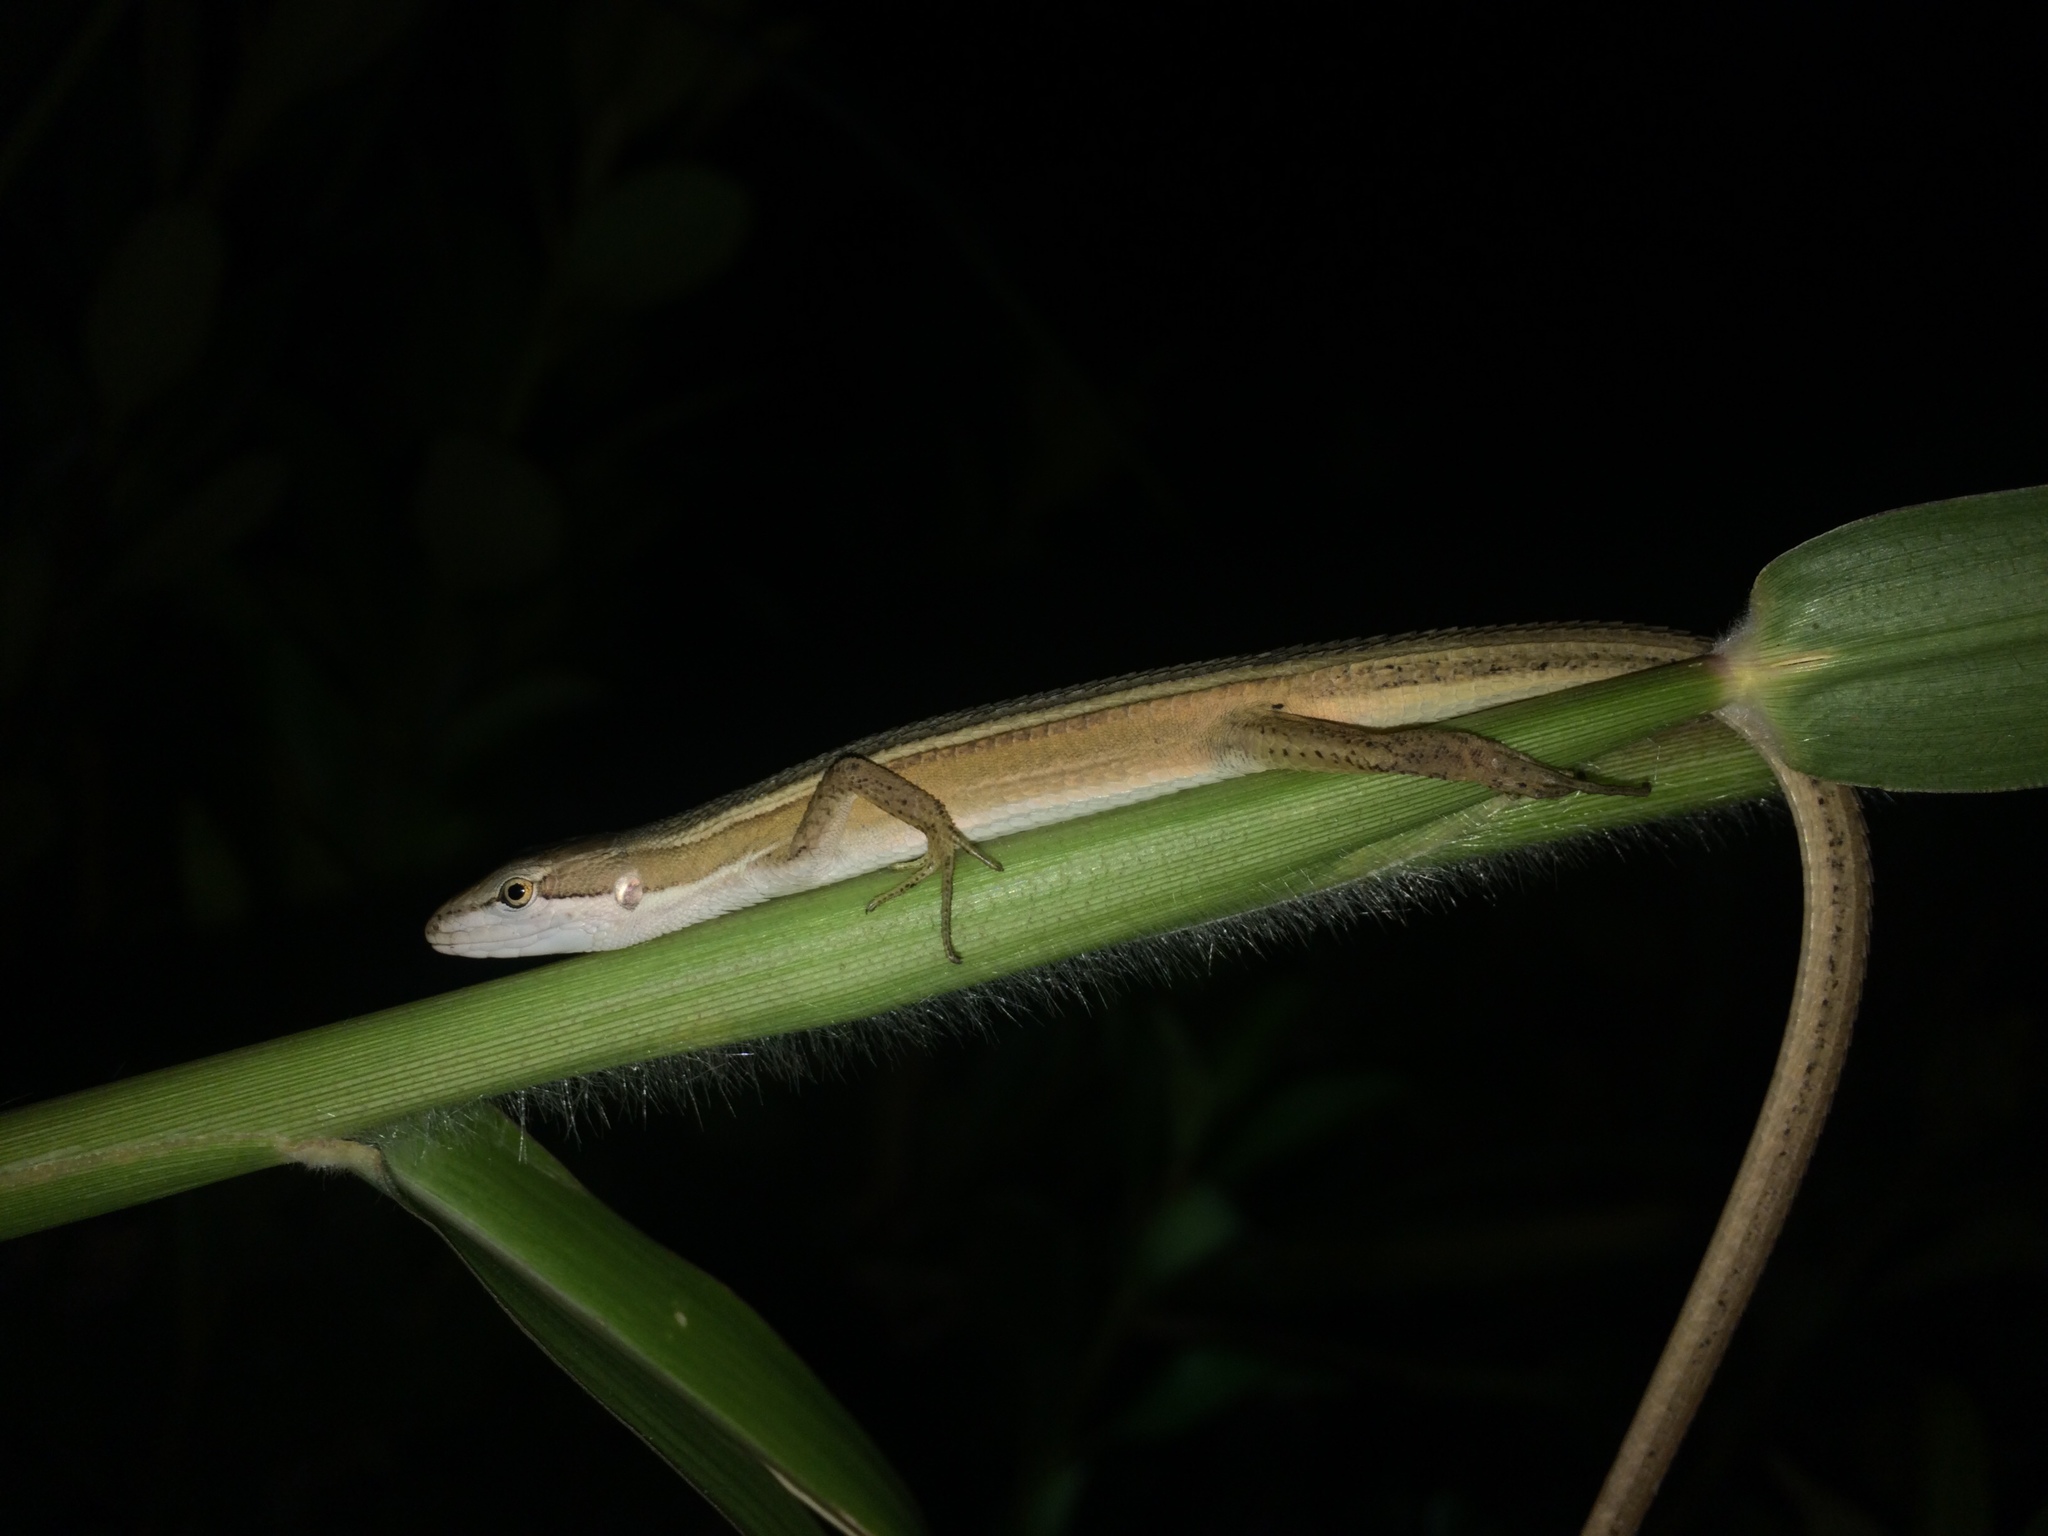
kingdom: Animalia
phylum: Chordata
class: Squamata
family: Lacertidae
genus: Takydromus
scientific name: Takydromus stejnegeri
